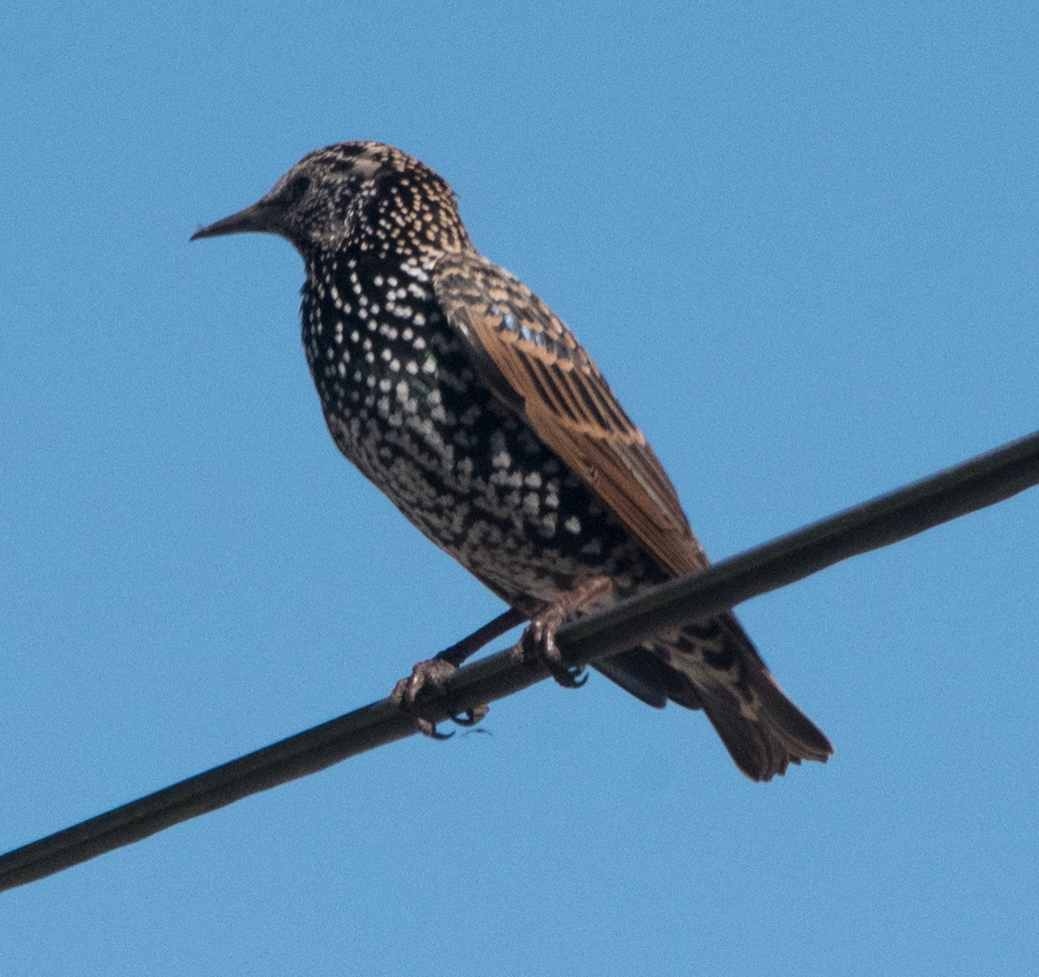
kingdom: Animalia
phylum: Chordata
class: Aves
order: Passeriformes
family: Sturnidae
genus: Sturnus
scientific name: Sturnus vulgaris
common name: Common starling
